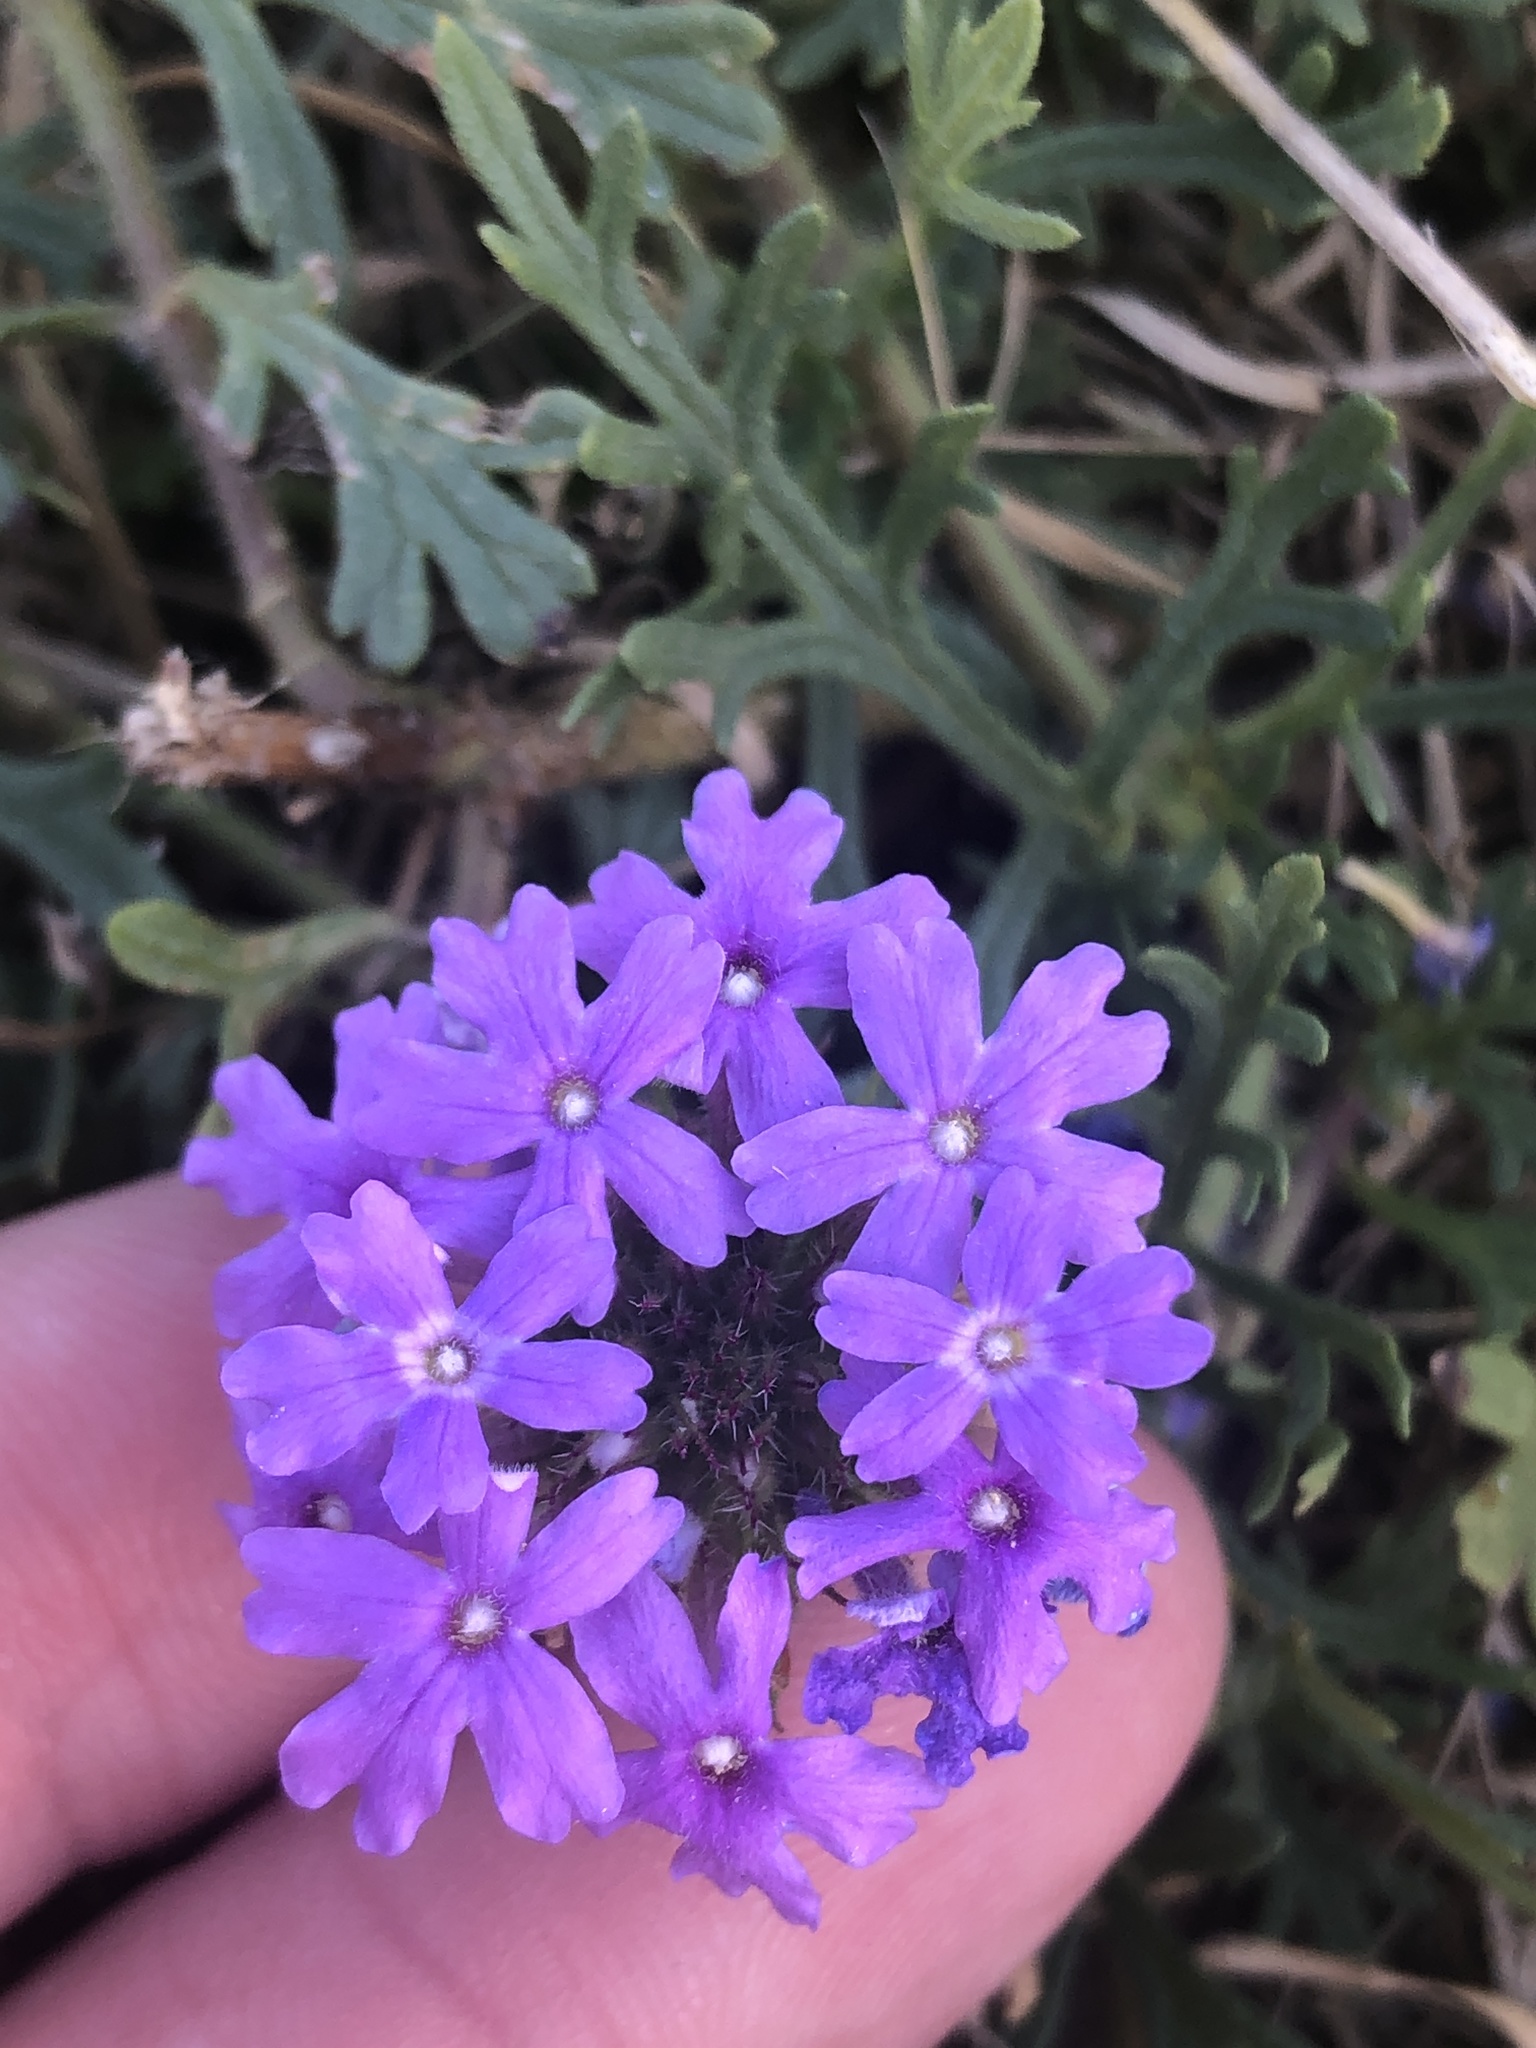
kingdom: Plantae
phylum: Tracheophyta
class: Magnoliopsida
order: Lamiales
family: Verbenaceae
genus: Verbena
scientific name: Verbena bipinnatifida
